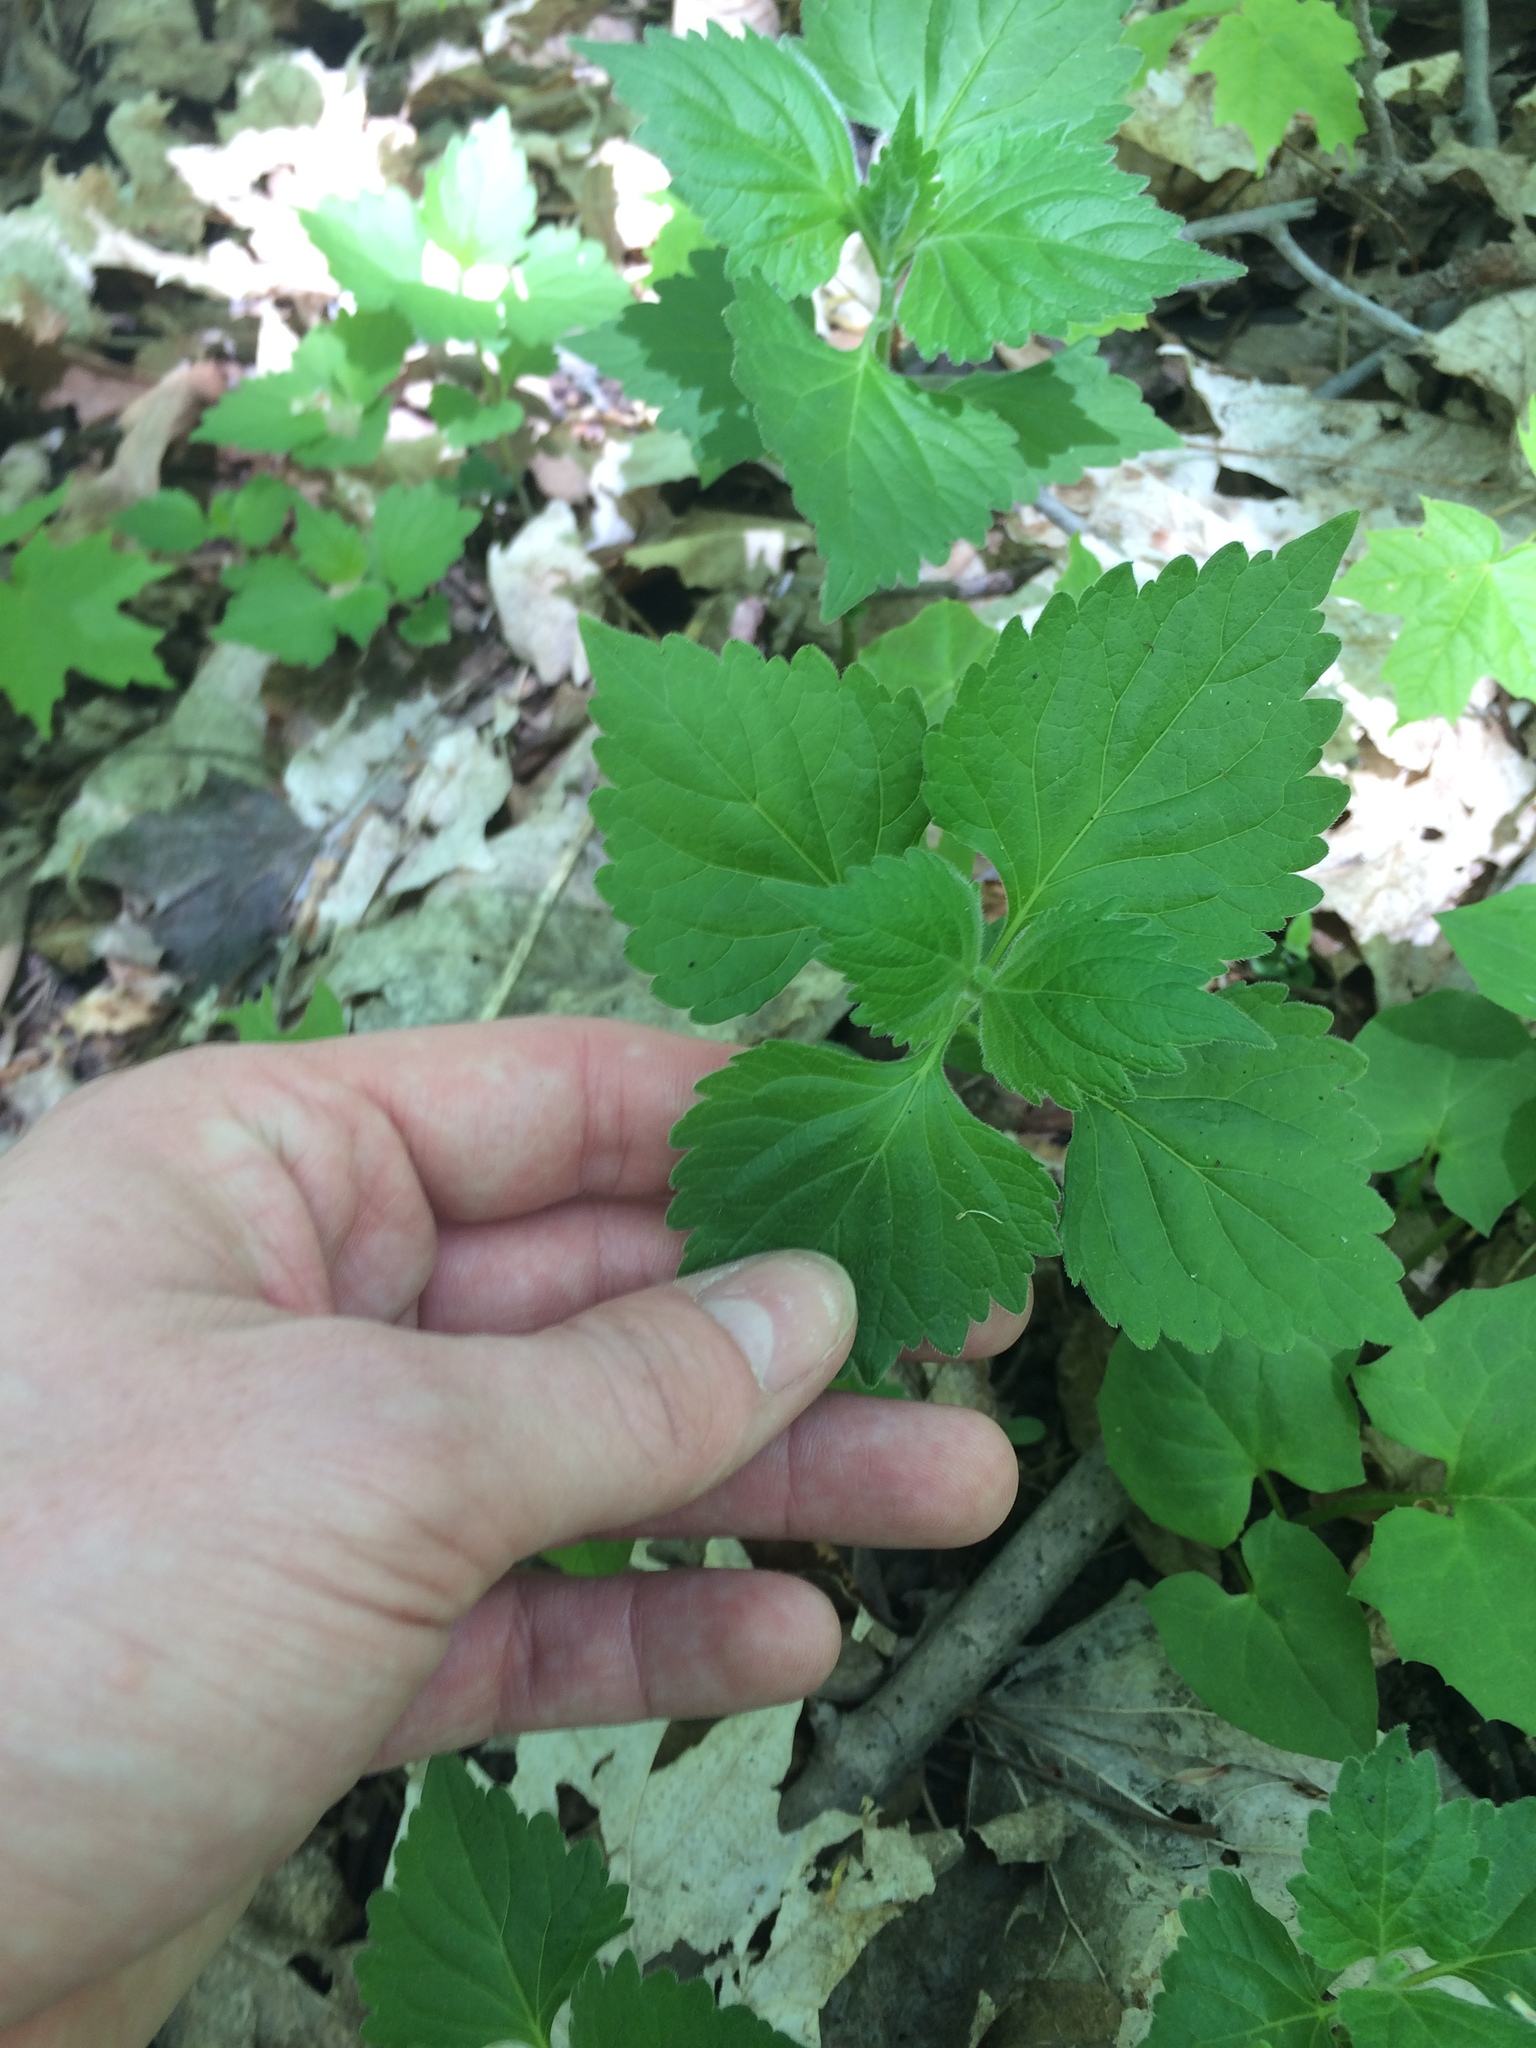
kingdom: Plantae
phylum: Tracheophyta
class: Magnoliopsida
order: Asterales
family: Asteraceae
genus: Ageratina
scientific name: Ageratina altissima
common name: White snakeroot
